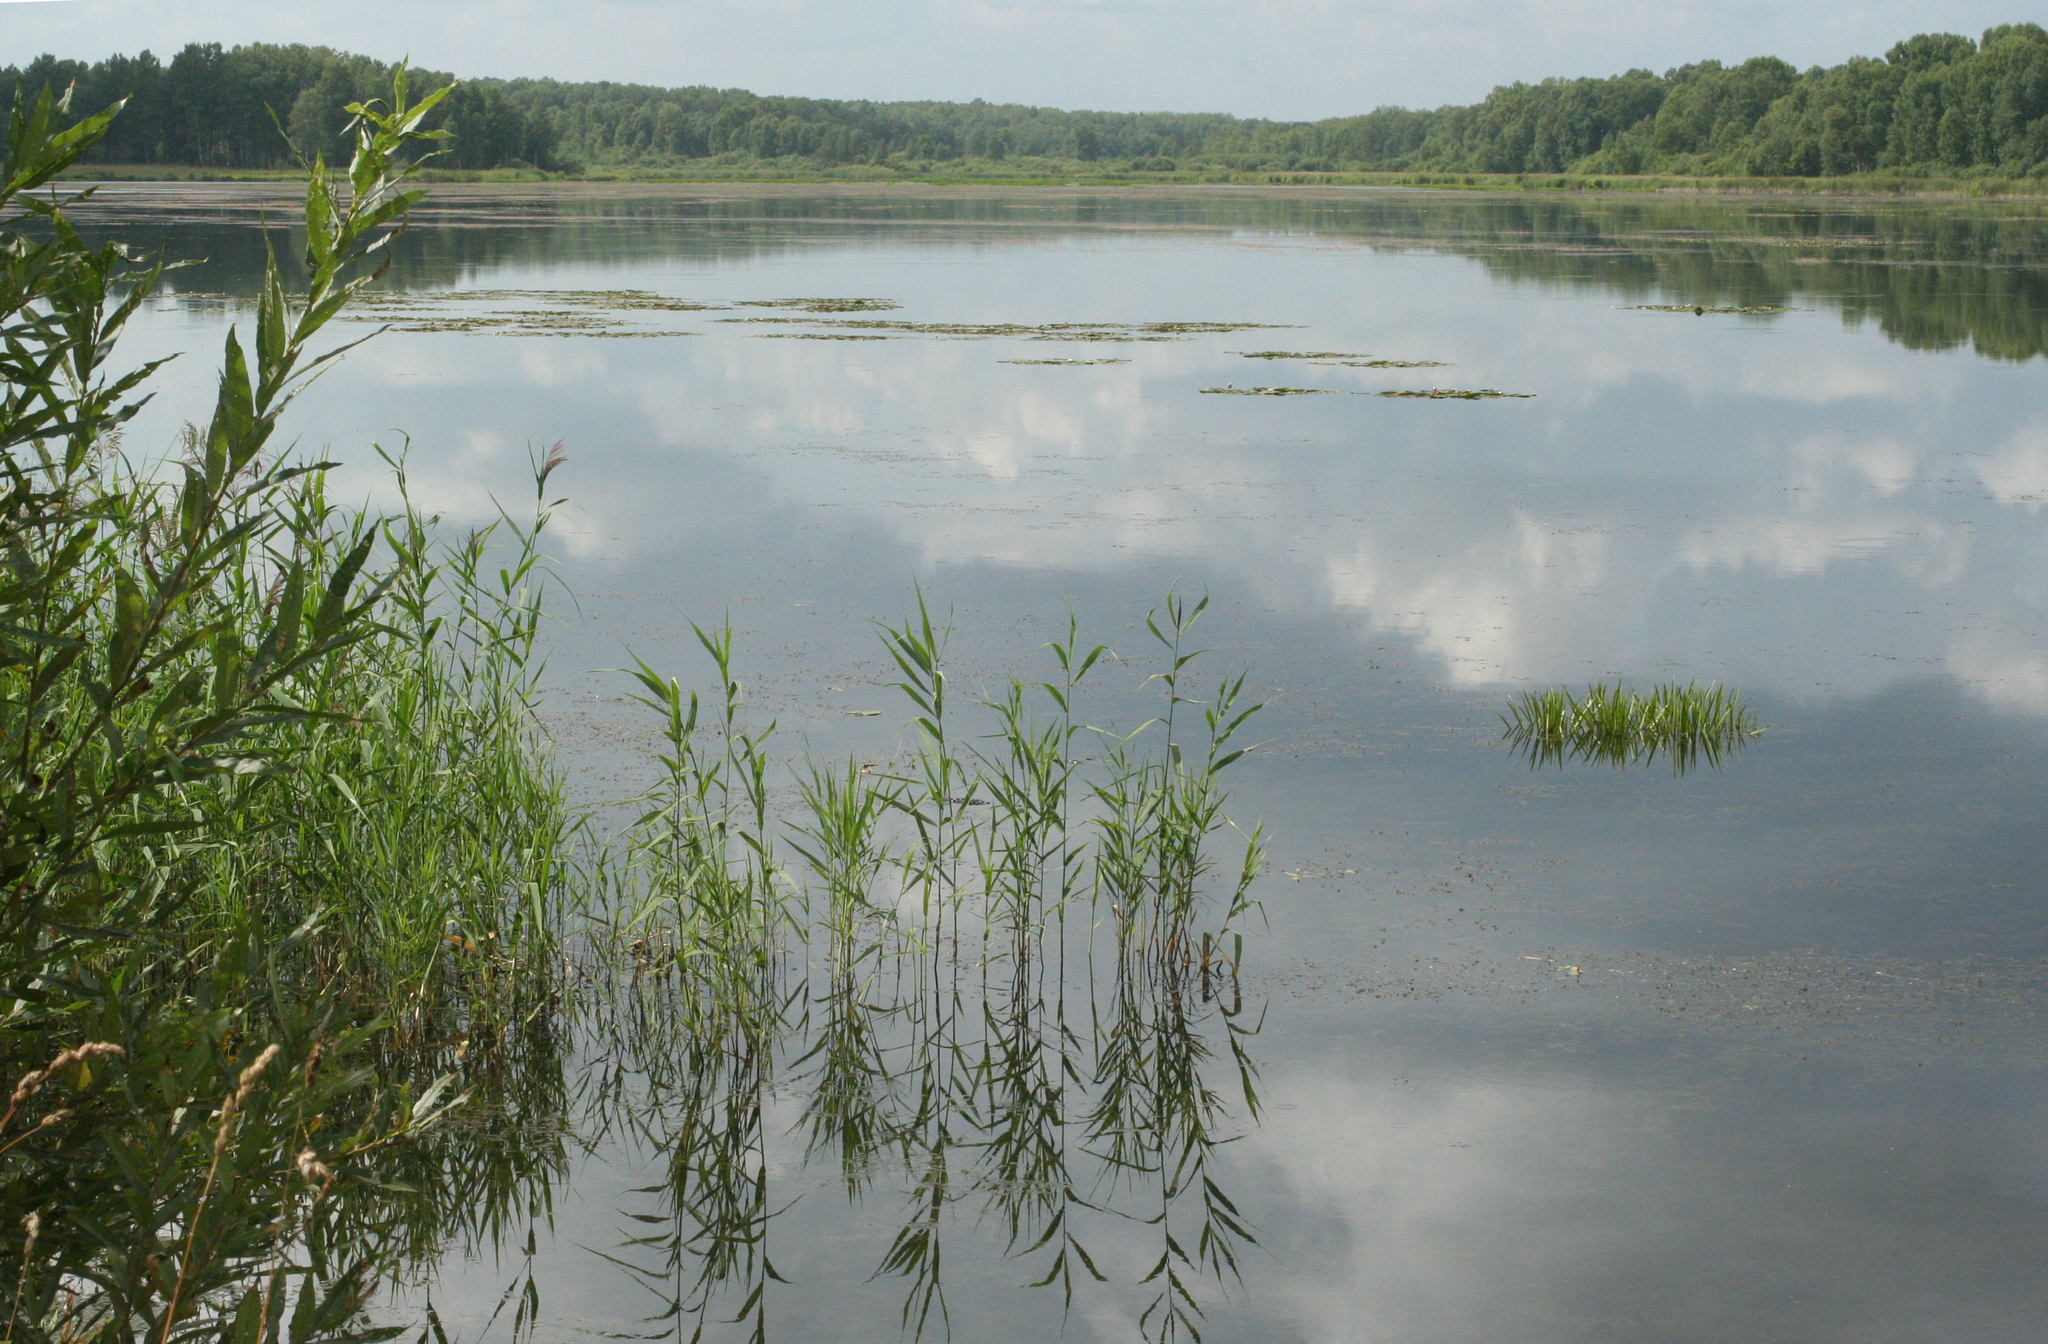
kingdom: Plantae
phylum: Tracheophyta
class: Liliopsida
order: Poales
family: Poaceae
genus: Phragmites
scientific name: Phragmites australis
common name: Common reed
